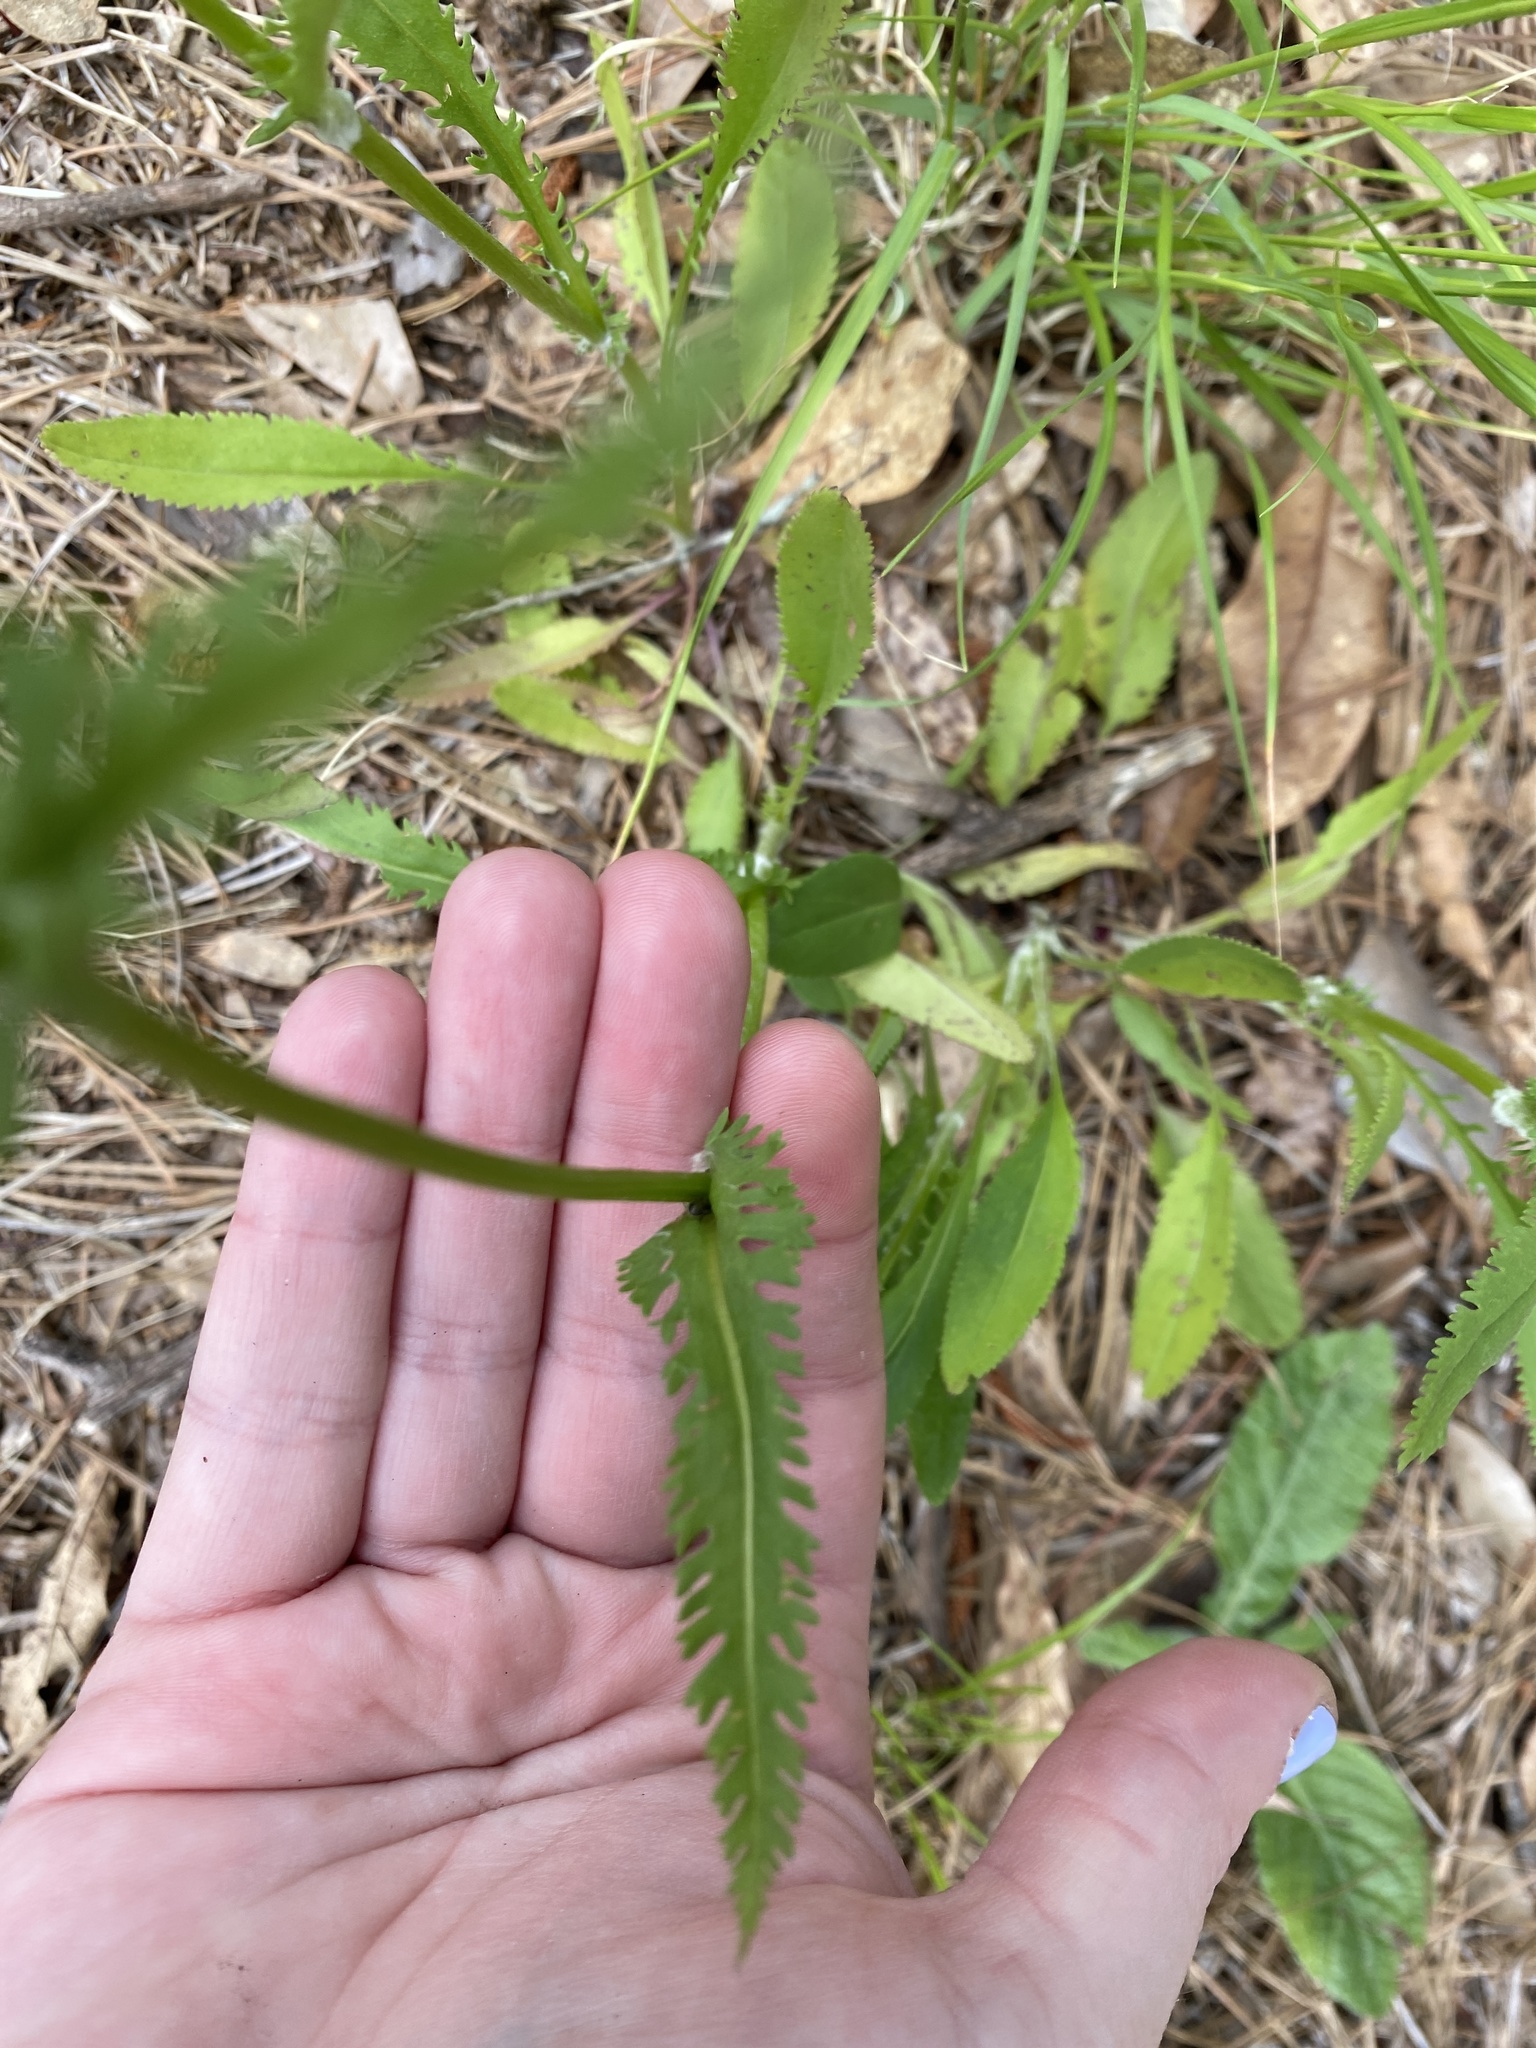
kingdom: Plantae
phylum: Tracheophyta
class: Magnoliopsida
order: Asterales
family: Asteraceae
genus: Packera
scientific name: Packera anonyma
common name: Small ragwort
